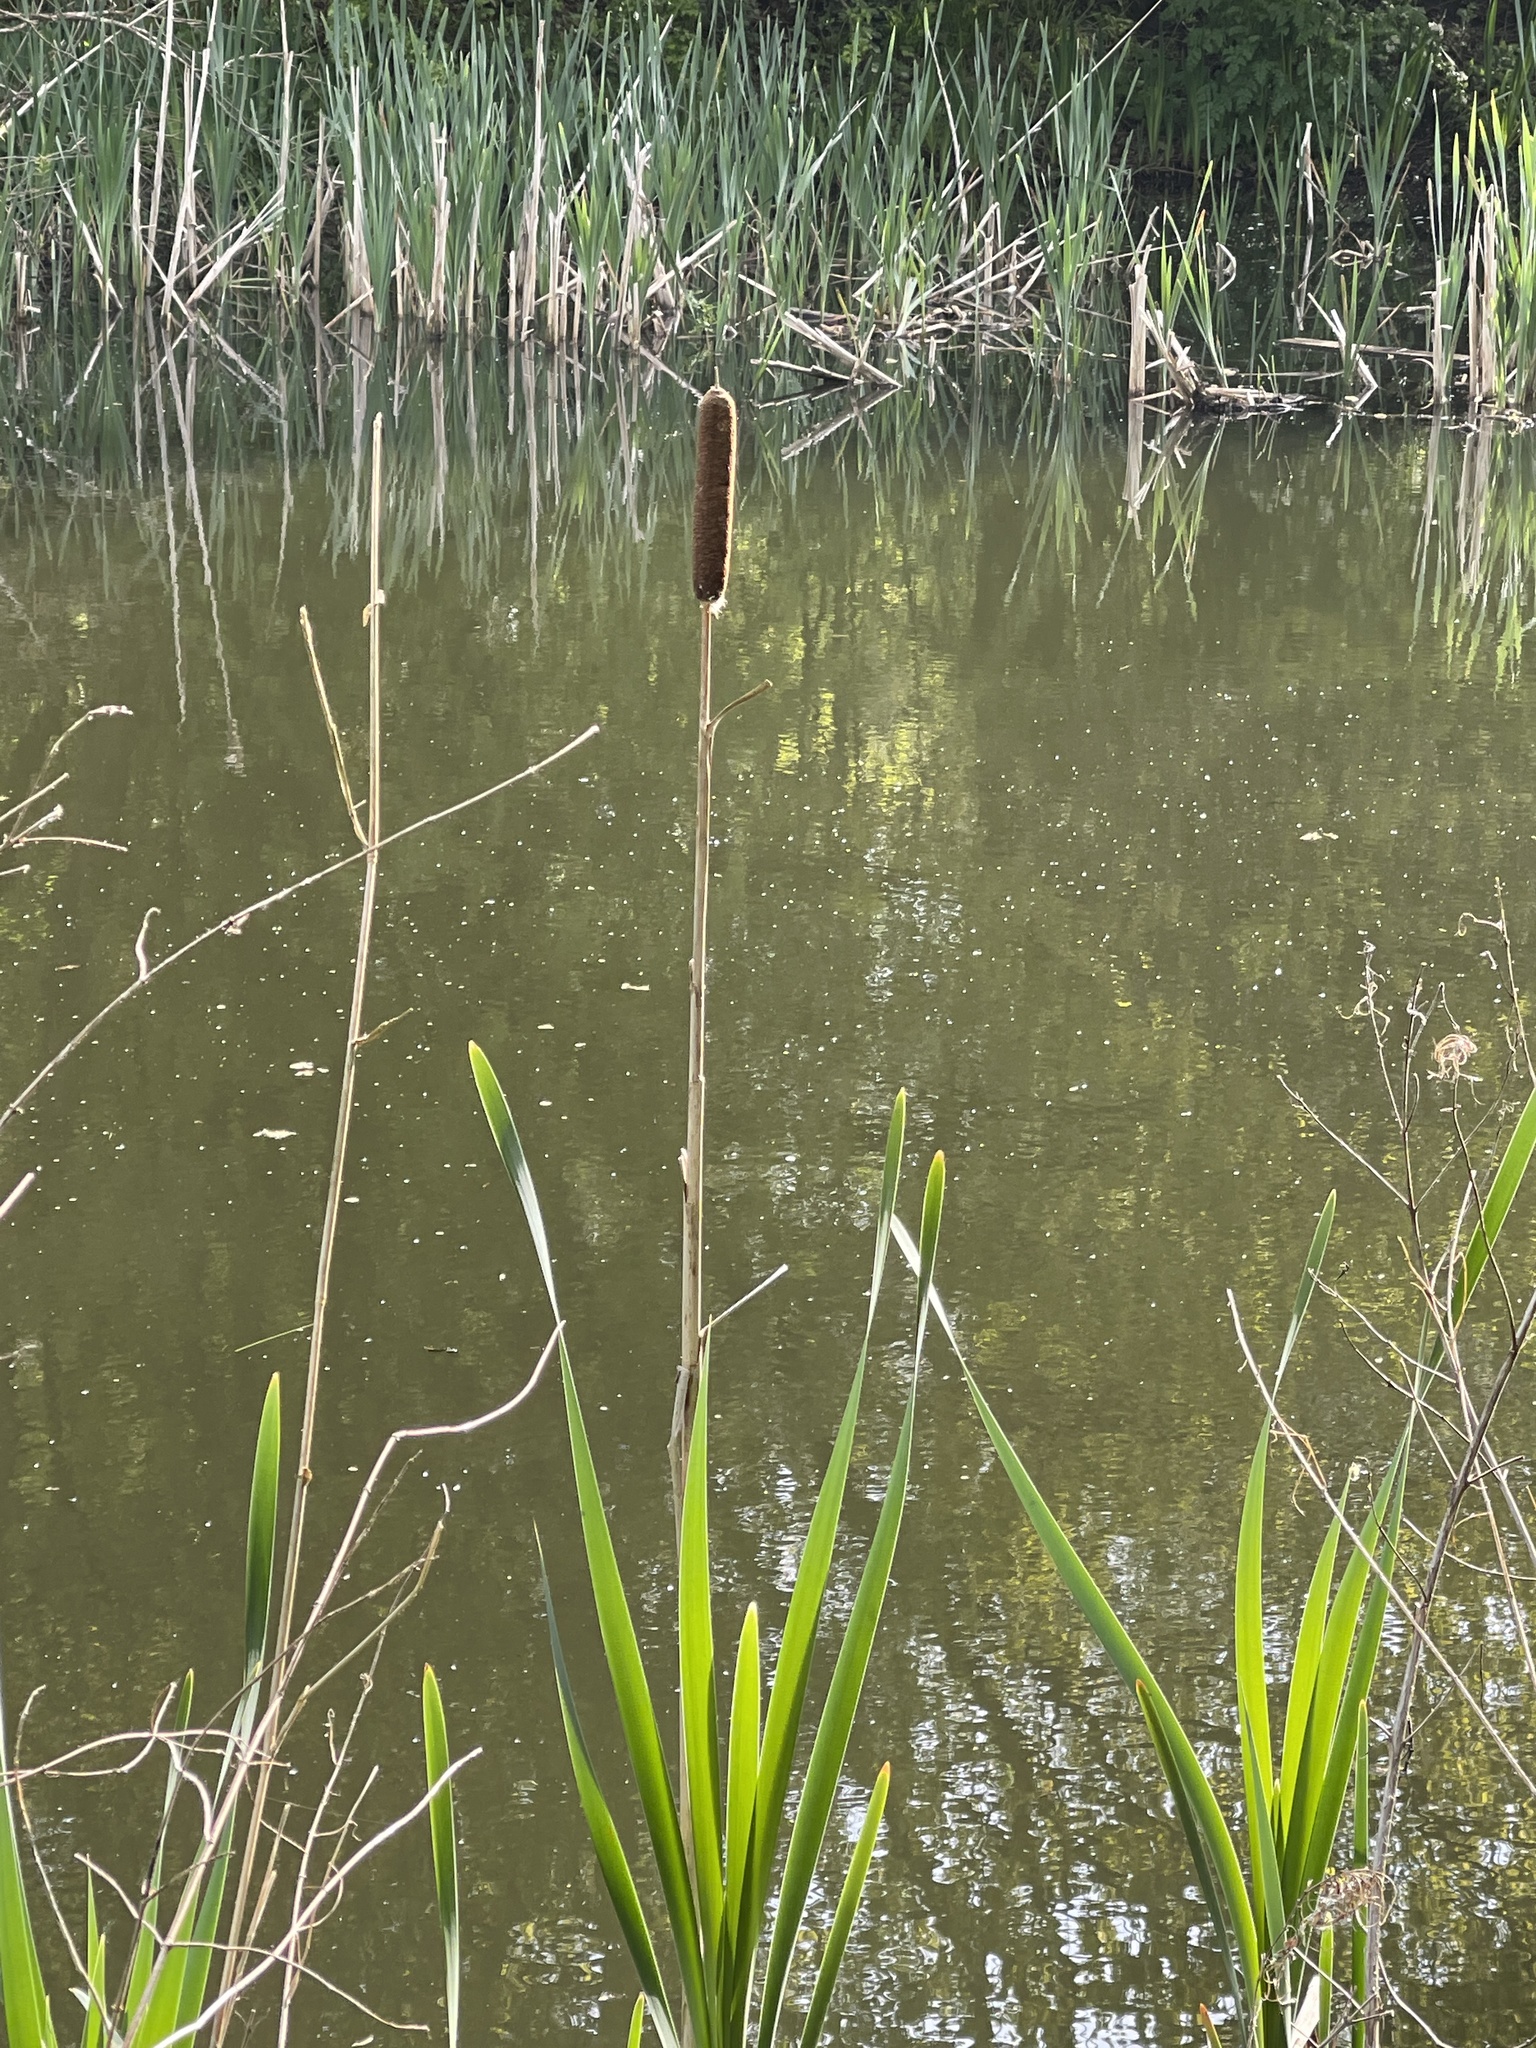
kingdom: Plantae
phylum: Tracheophyta
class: Liliopsida
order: Poales
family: Typhaceae
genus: Typha
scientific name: Typha latifolia
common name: Broadleaf cattail
